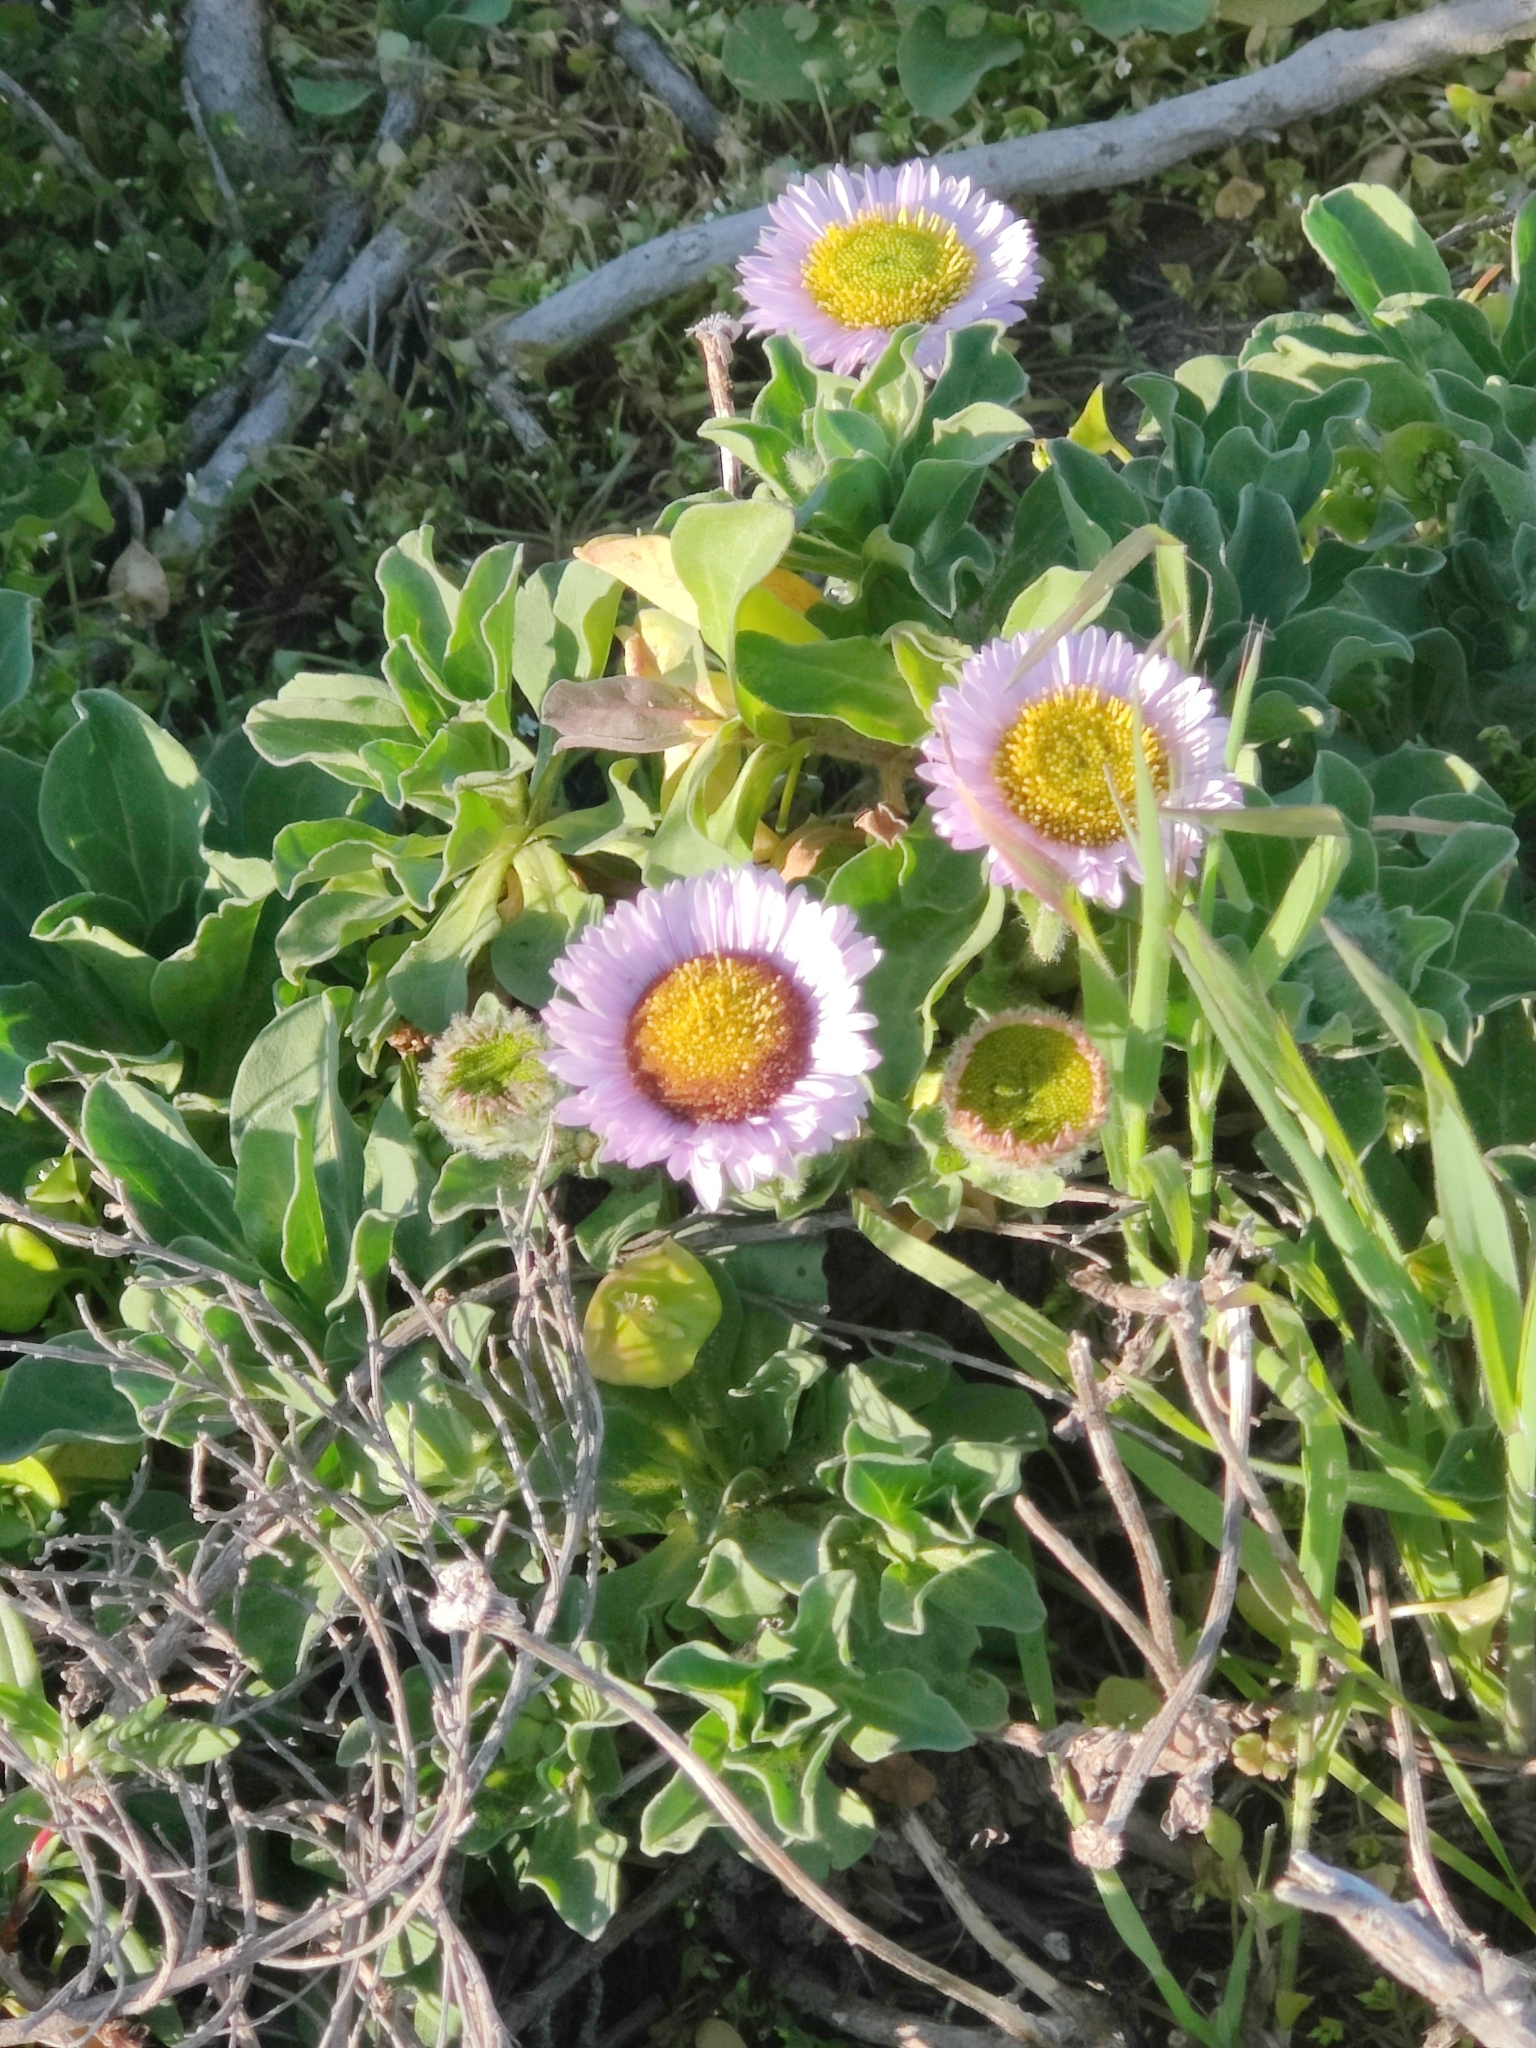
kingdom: Plantae
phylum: Tracheophyta
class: Magnoliopsida
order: Asterales
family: Asteraceae
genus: Erigeron
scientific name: Erigeron glaucus
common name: Seaside daisy
